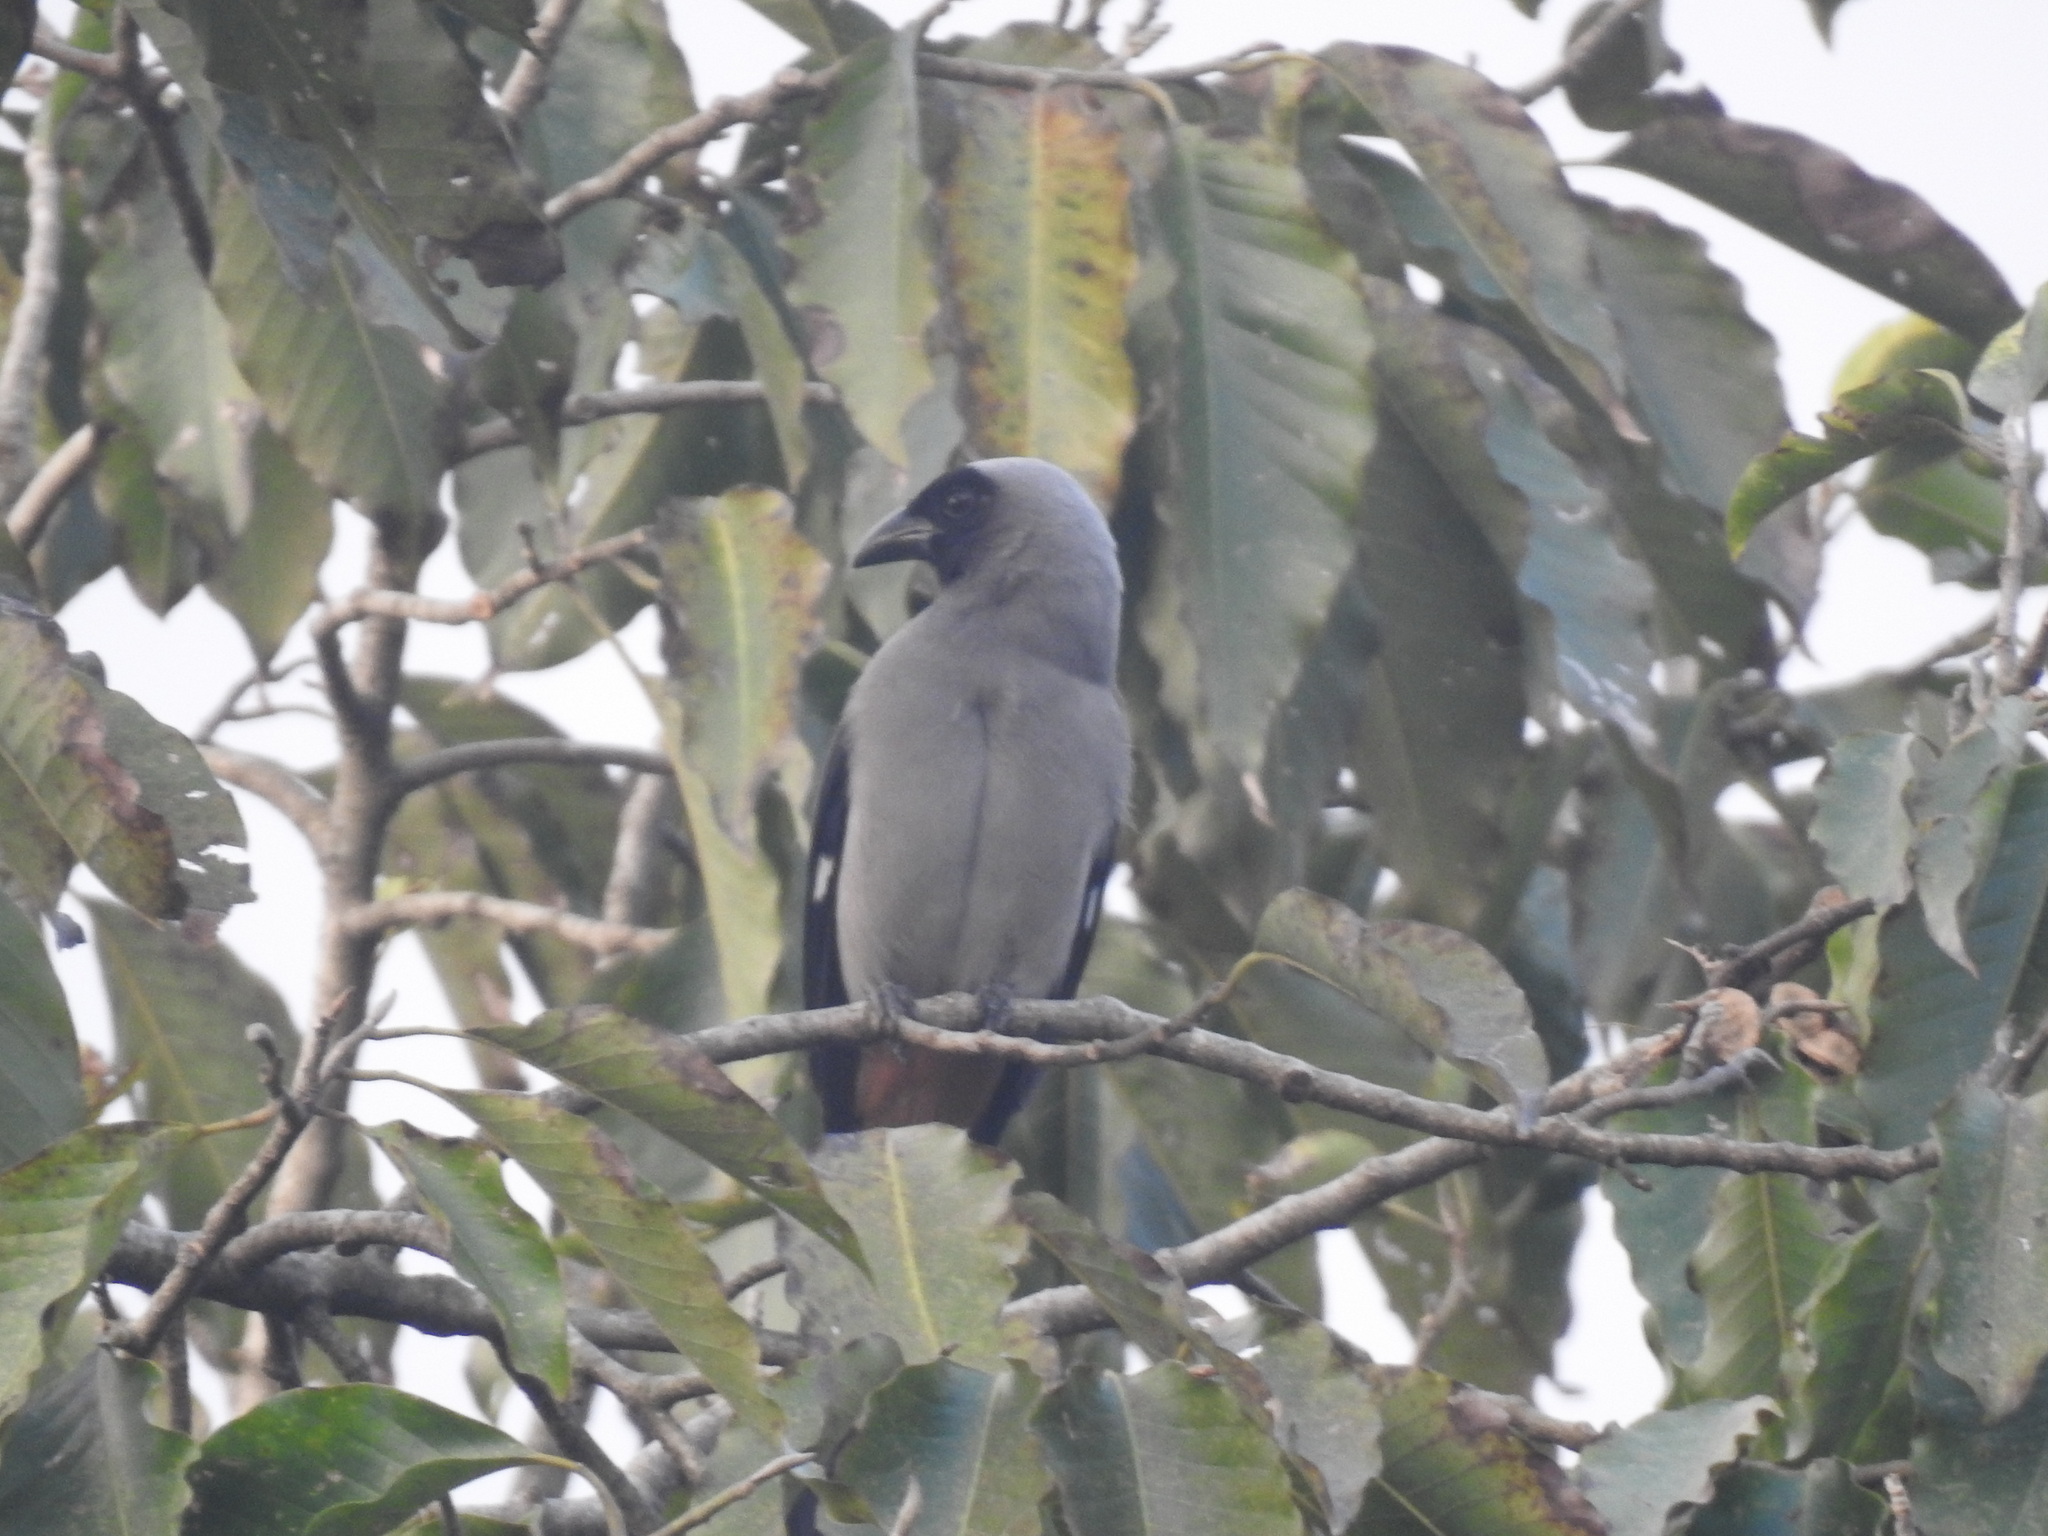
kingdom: Animalia
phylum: Chordata
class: Aves
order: Passeriformes
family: Corvidae
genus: Dendrocitta
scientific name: Dendrocitta formosae
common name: Grey treepie
